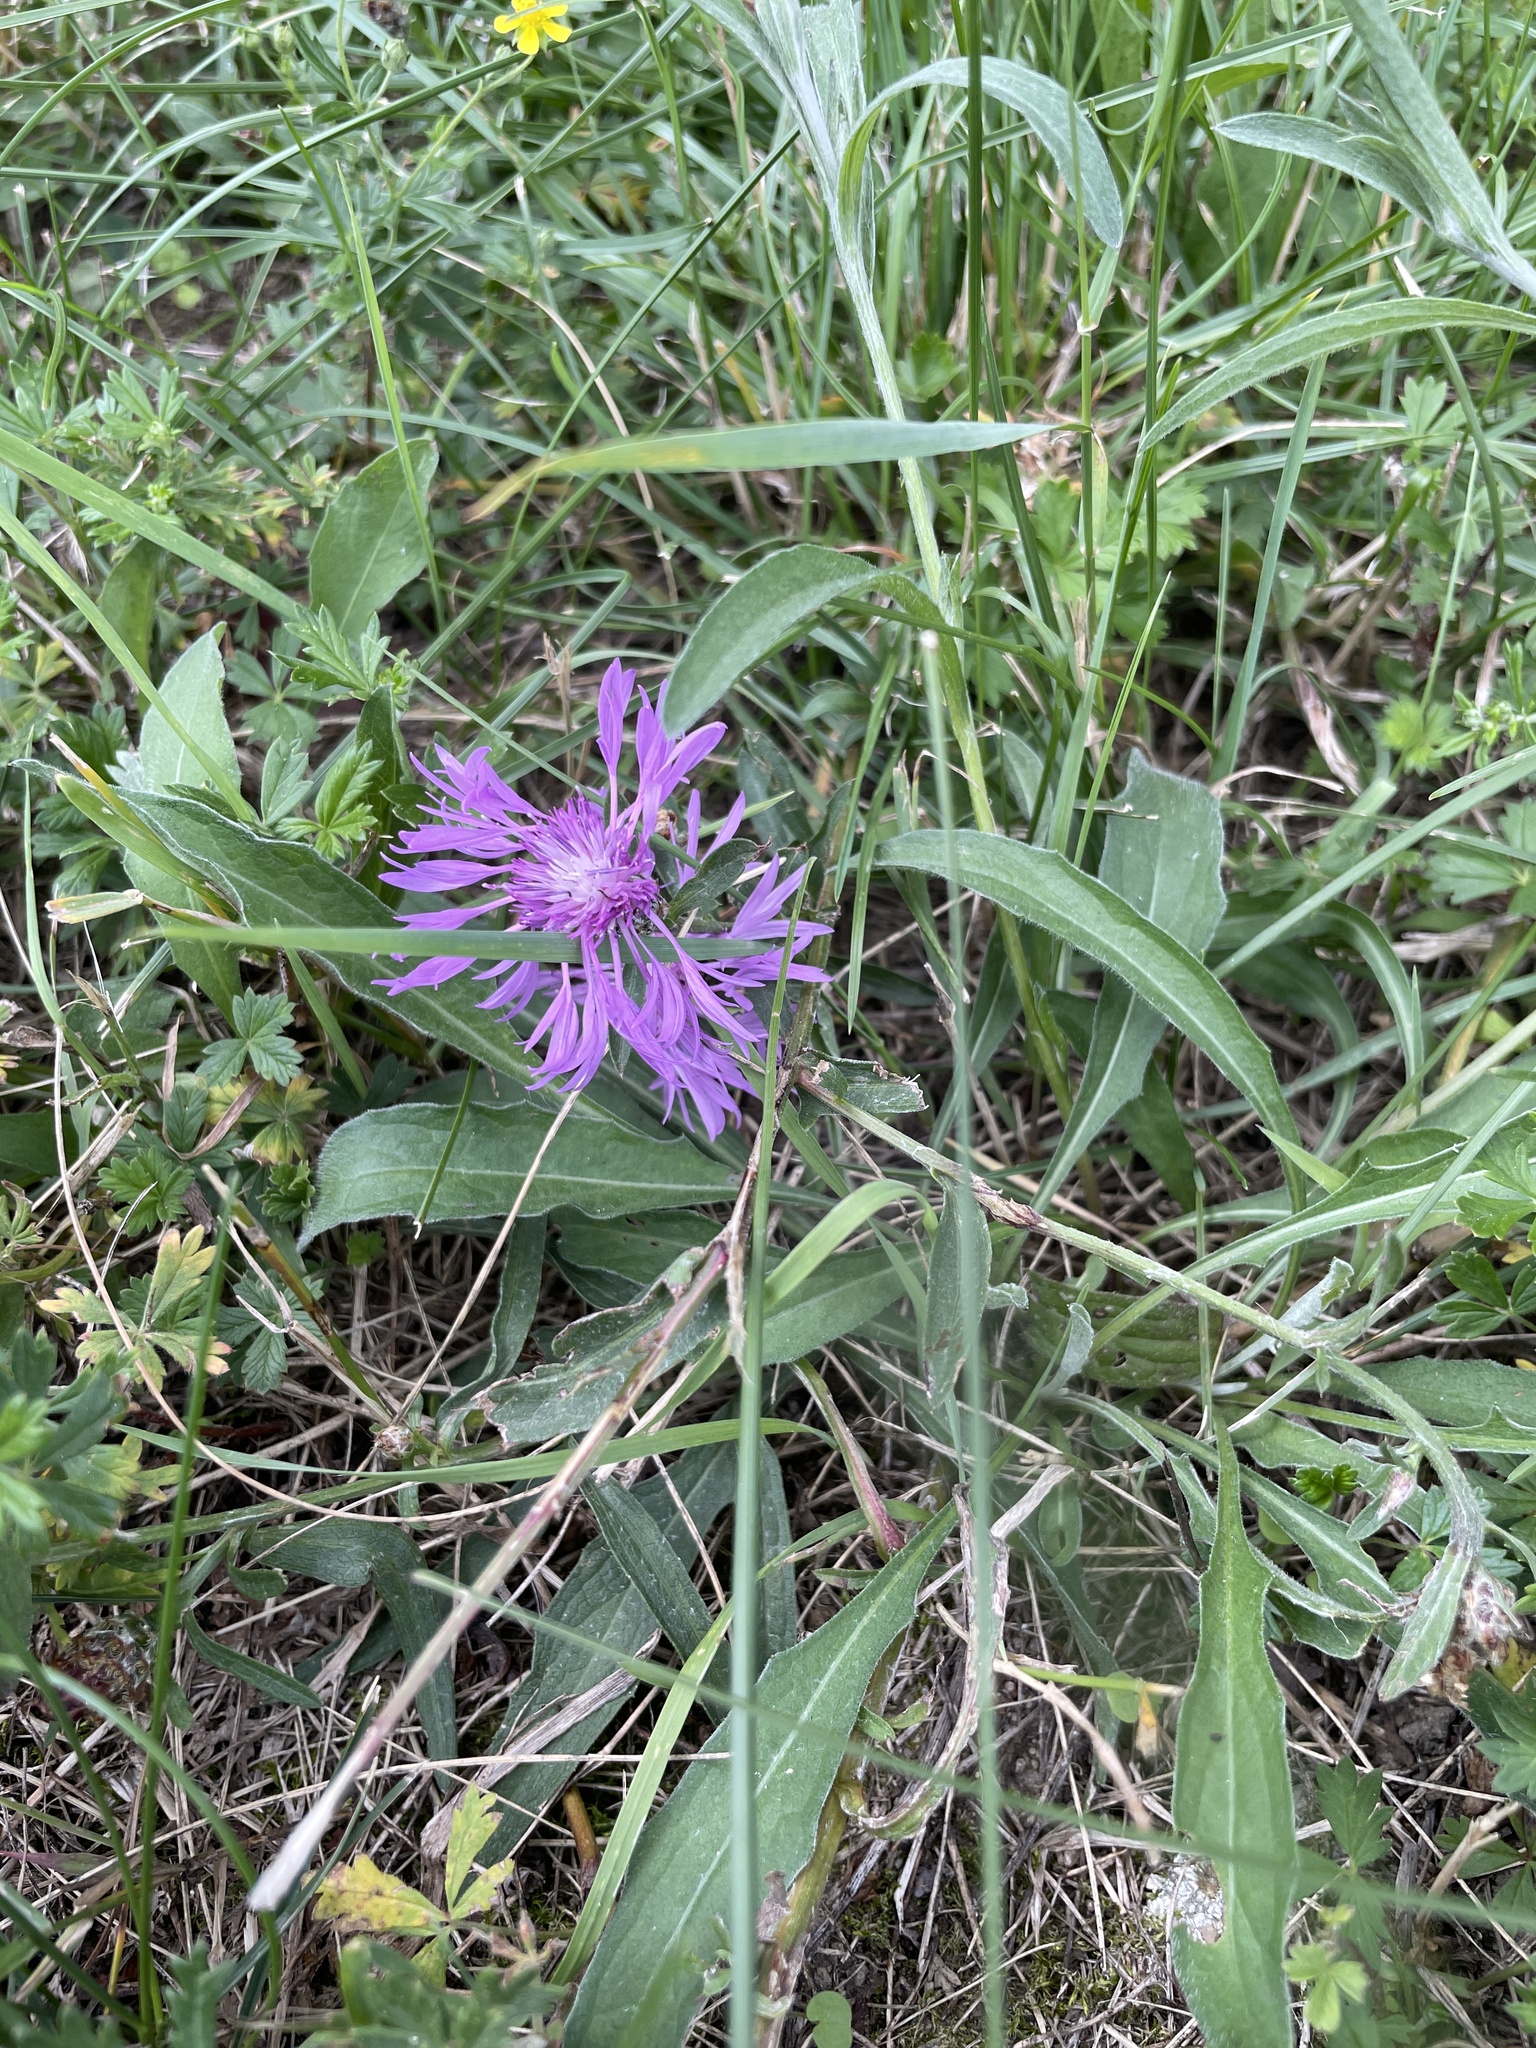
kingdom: Plantae
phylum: Tracheophyta
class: Magnoliopsida
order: Asterales
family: Asteraceae
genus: Centaurea
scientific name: Centaurea jacea
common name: Brown knapweed
